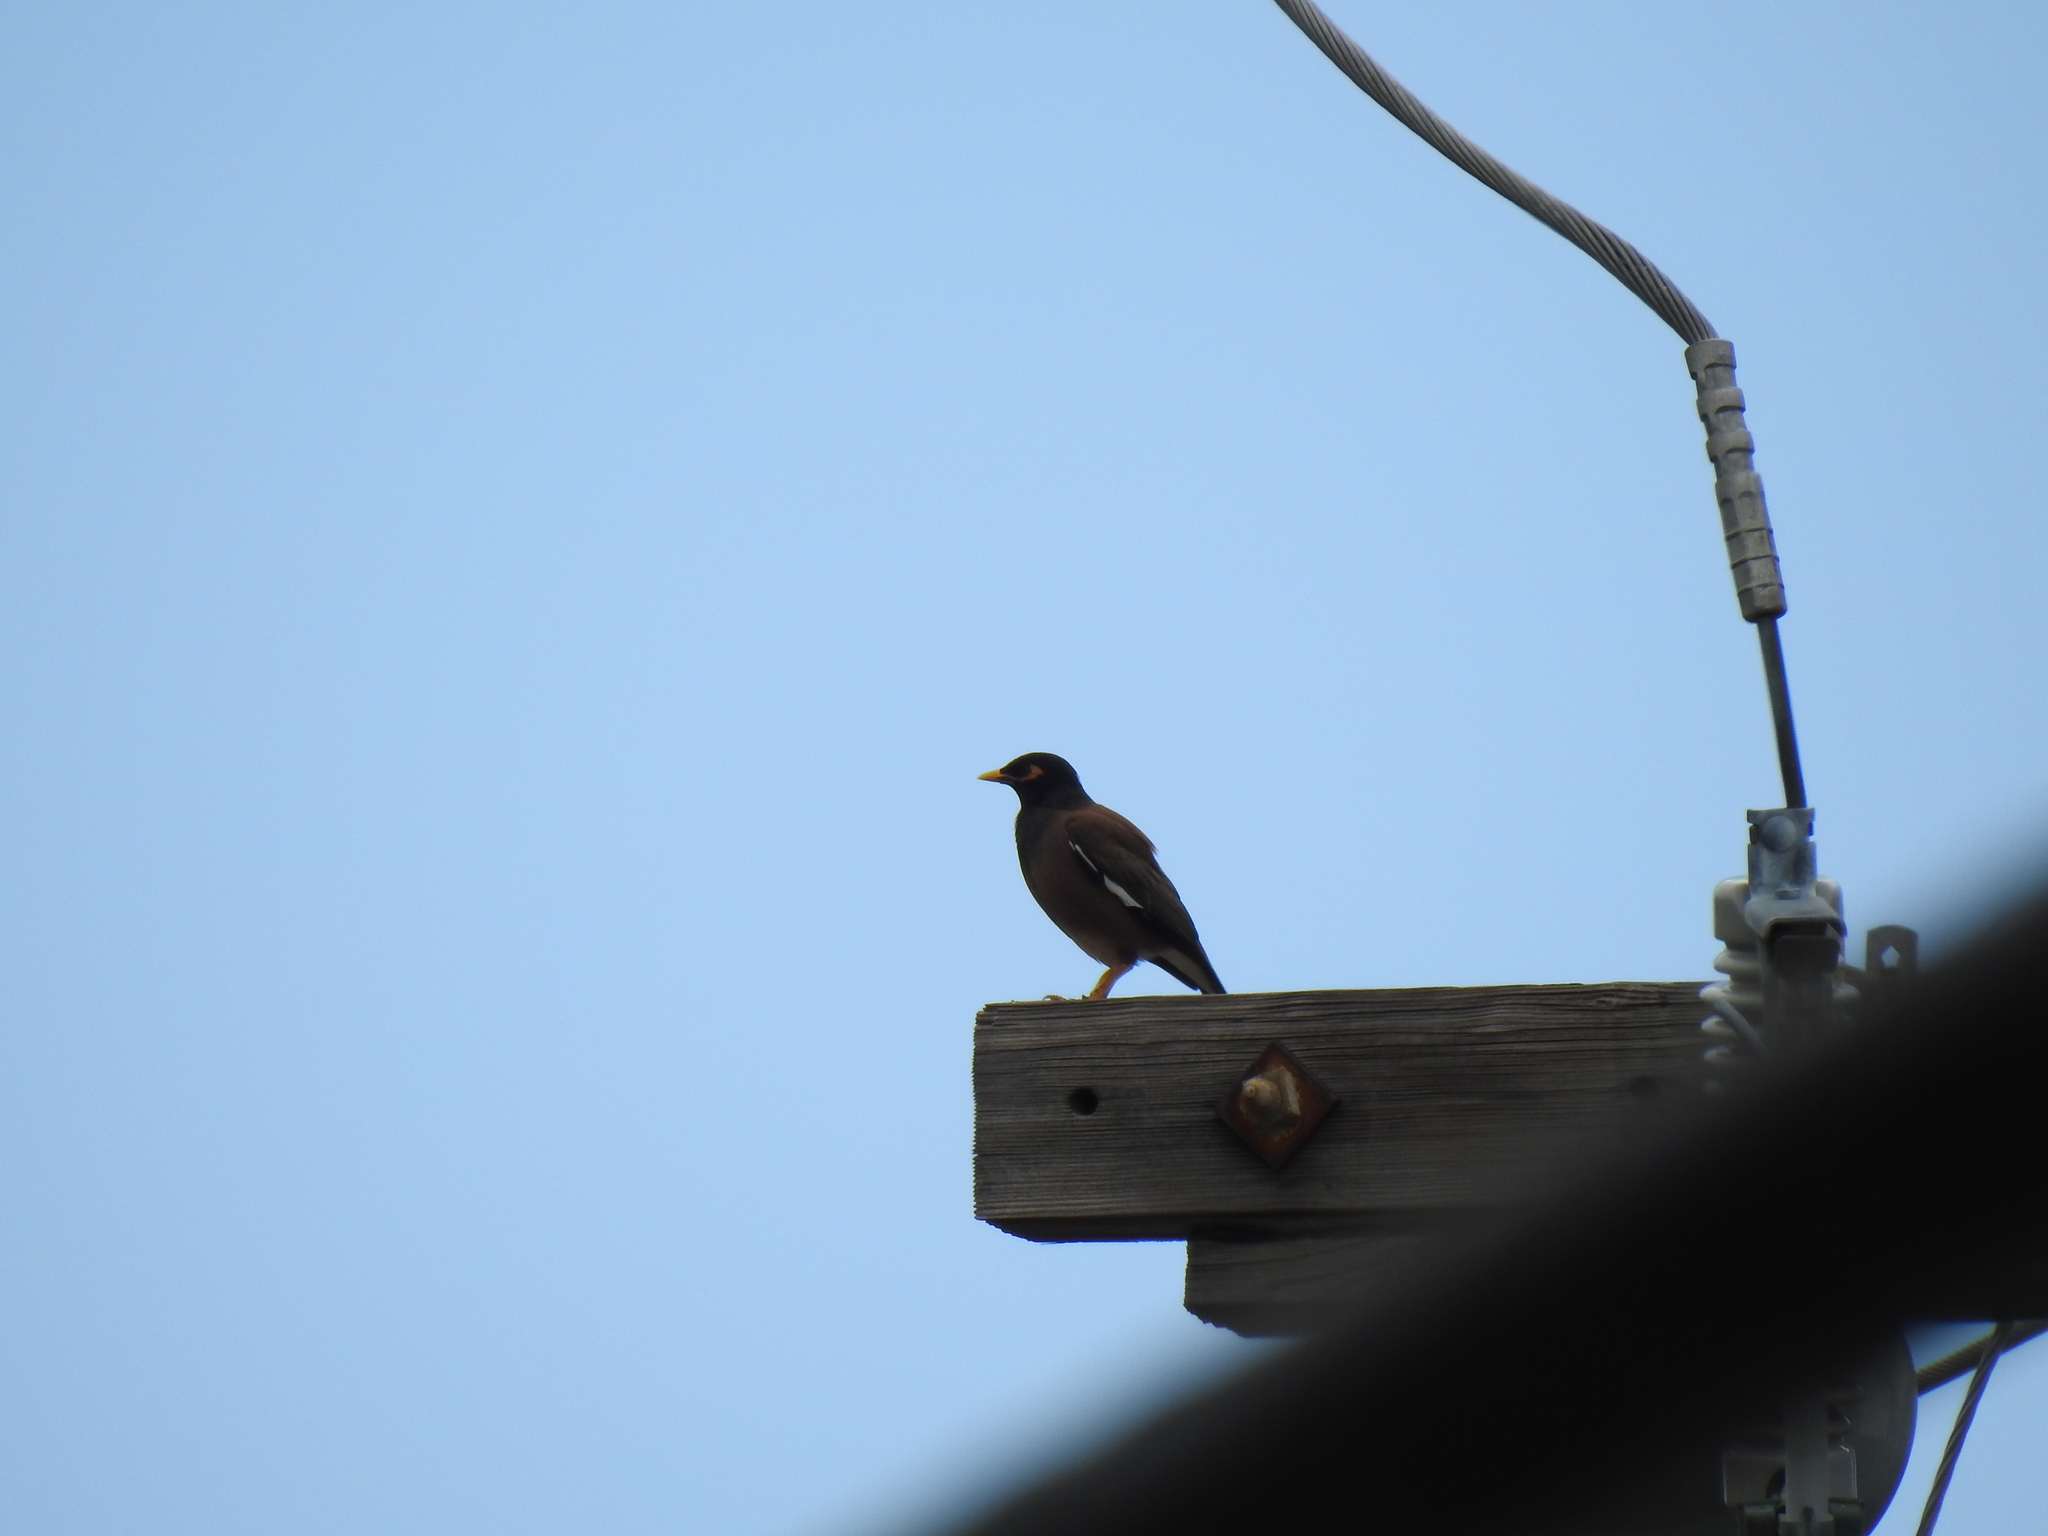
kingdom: Animalia
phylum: Chordata
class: Aves
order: Passeriformes
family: Sturnidae
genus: Acridotheres
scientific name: Acridotheres tristis
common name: Common myna
